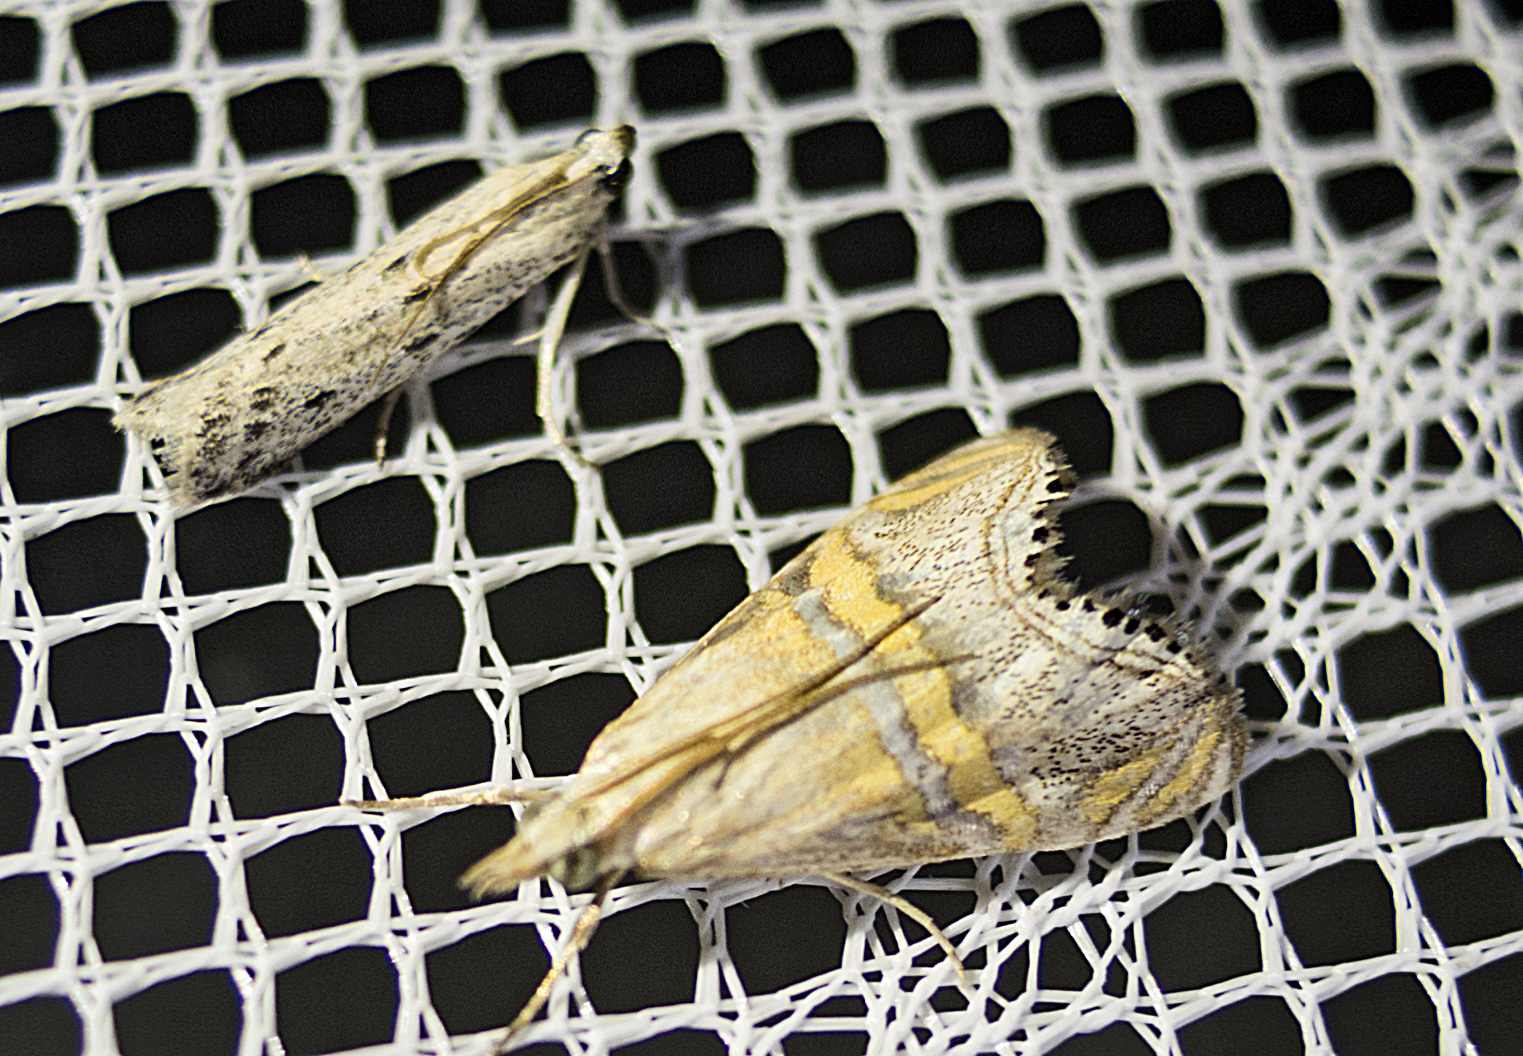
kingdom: Animalia
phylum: Arthropoda
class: Insecta
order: Lepidoptera
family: Pyralidae
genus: Phycitodes
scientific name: Phycitodes lacteella
